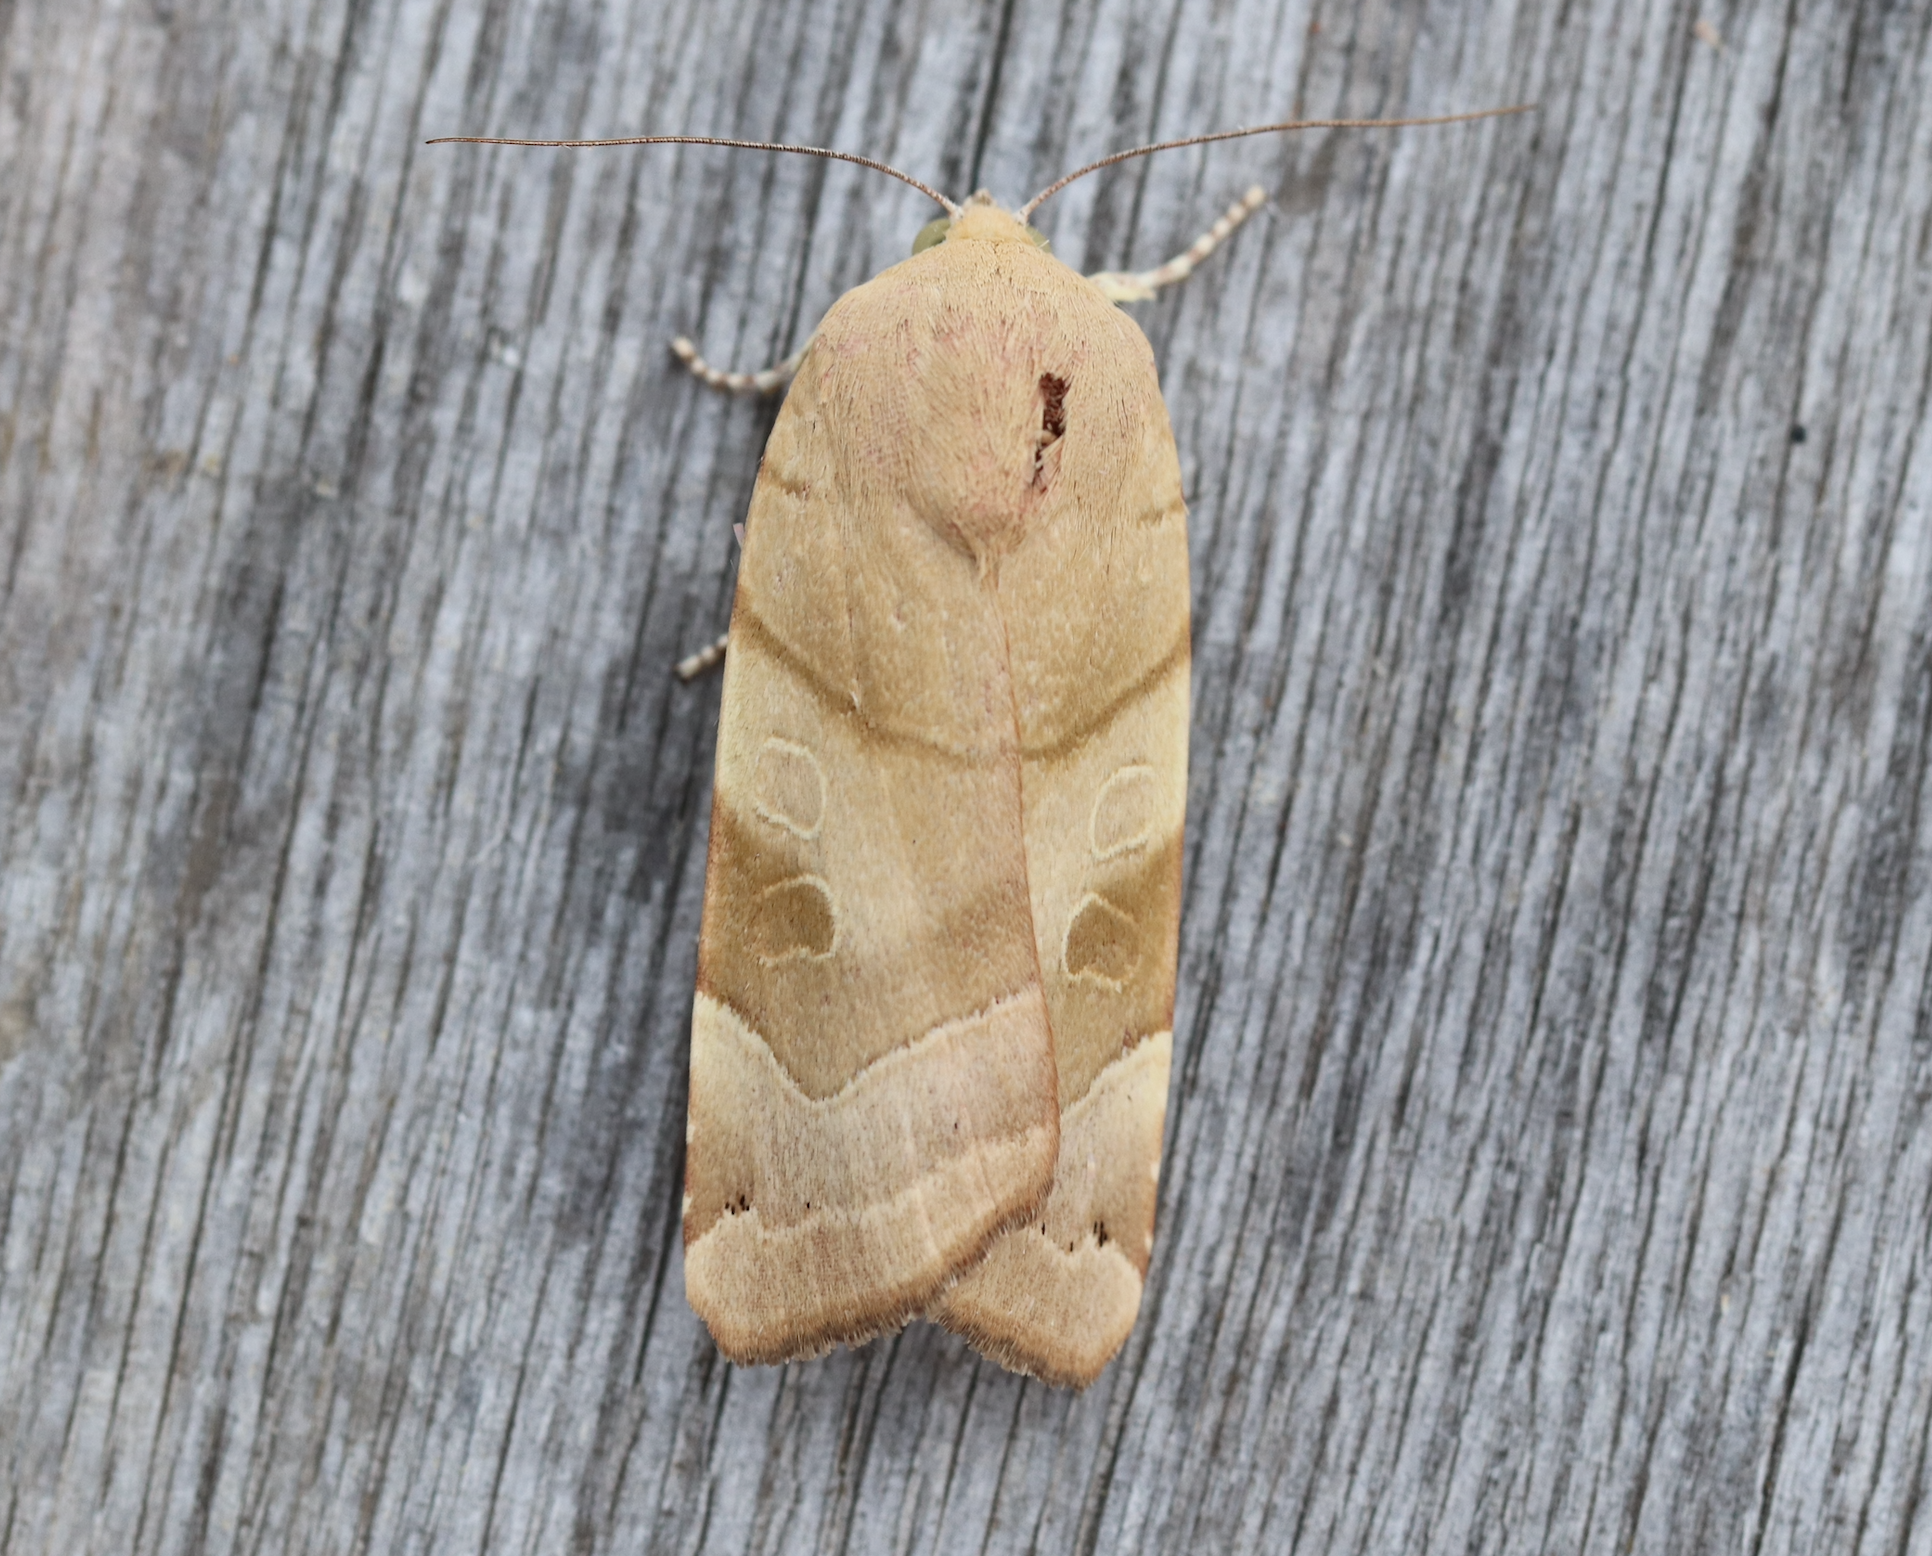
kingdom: Animalia
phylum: Arthropoda
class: Insecta
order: Lepidoptera
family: Noctuidae
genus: Noctua
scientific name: Noctua fimbriata
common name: Broad-bordered yellow underwing
